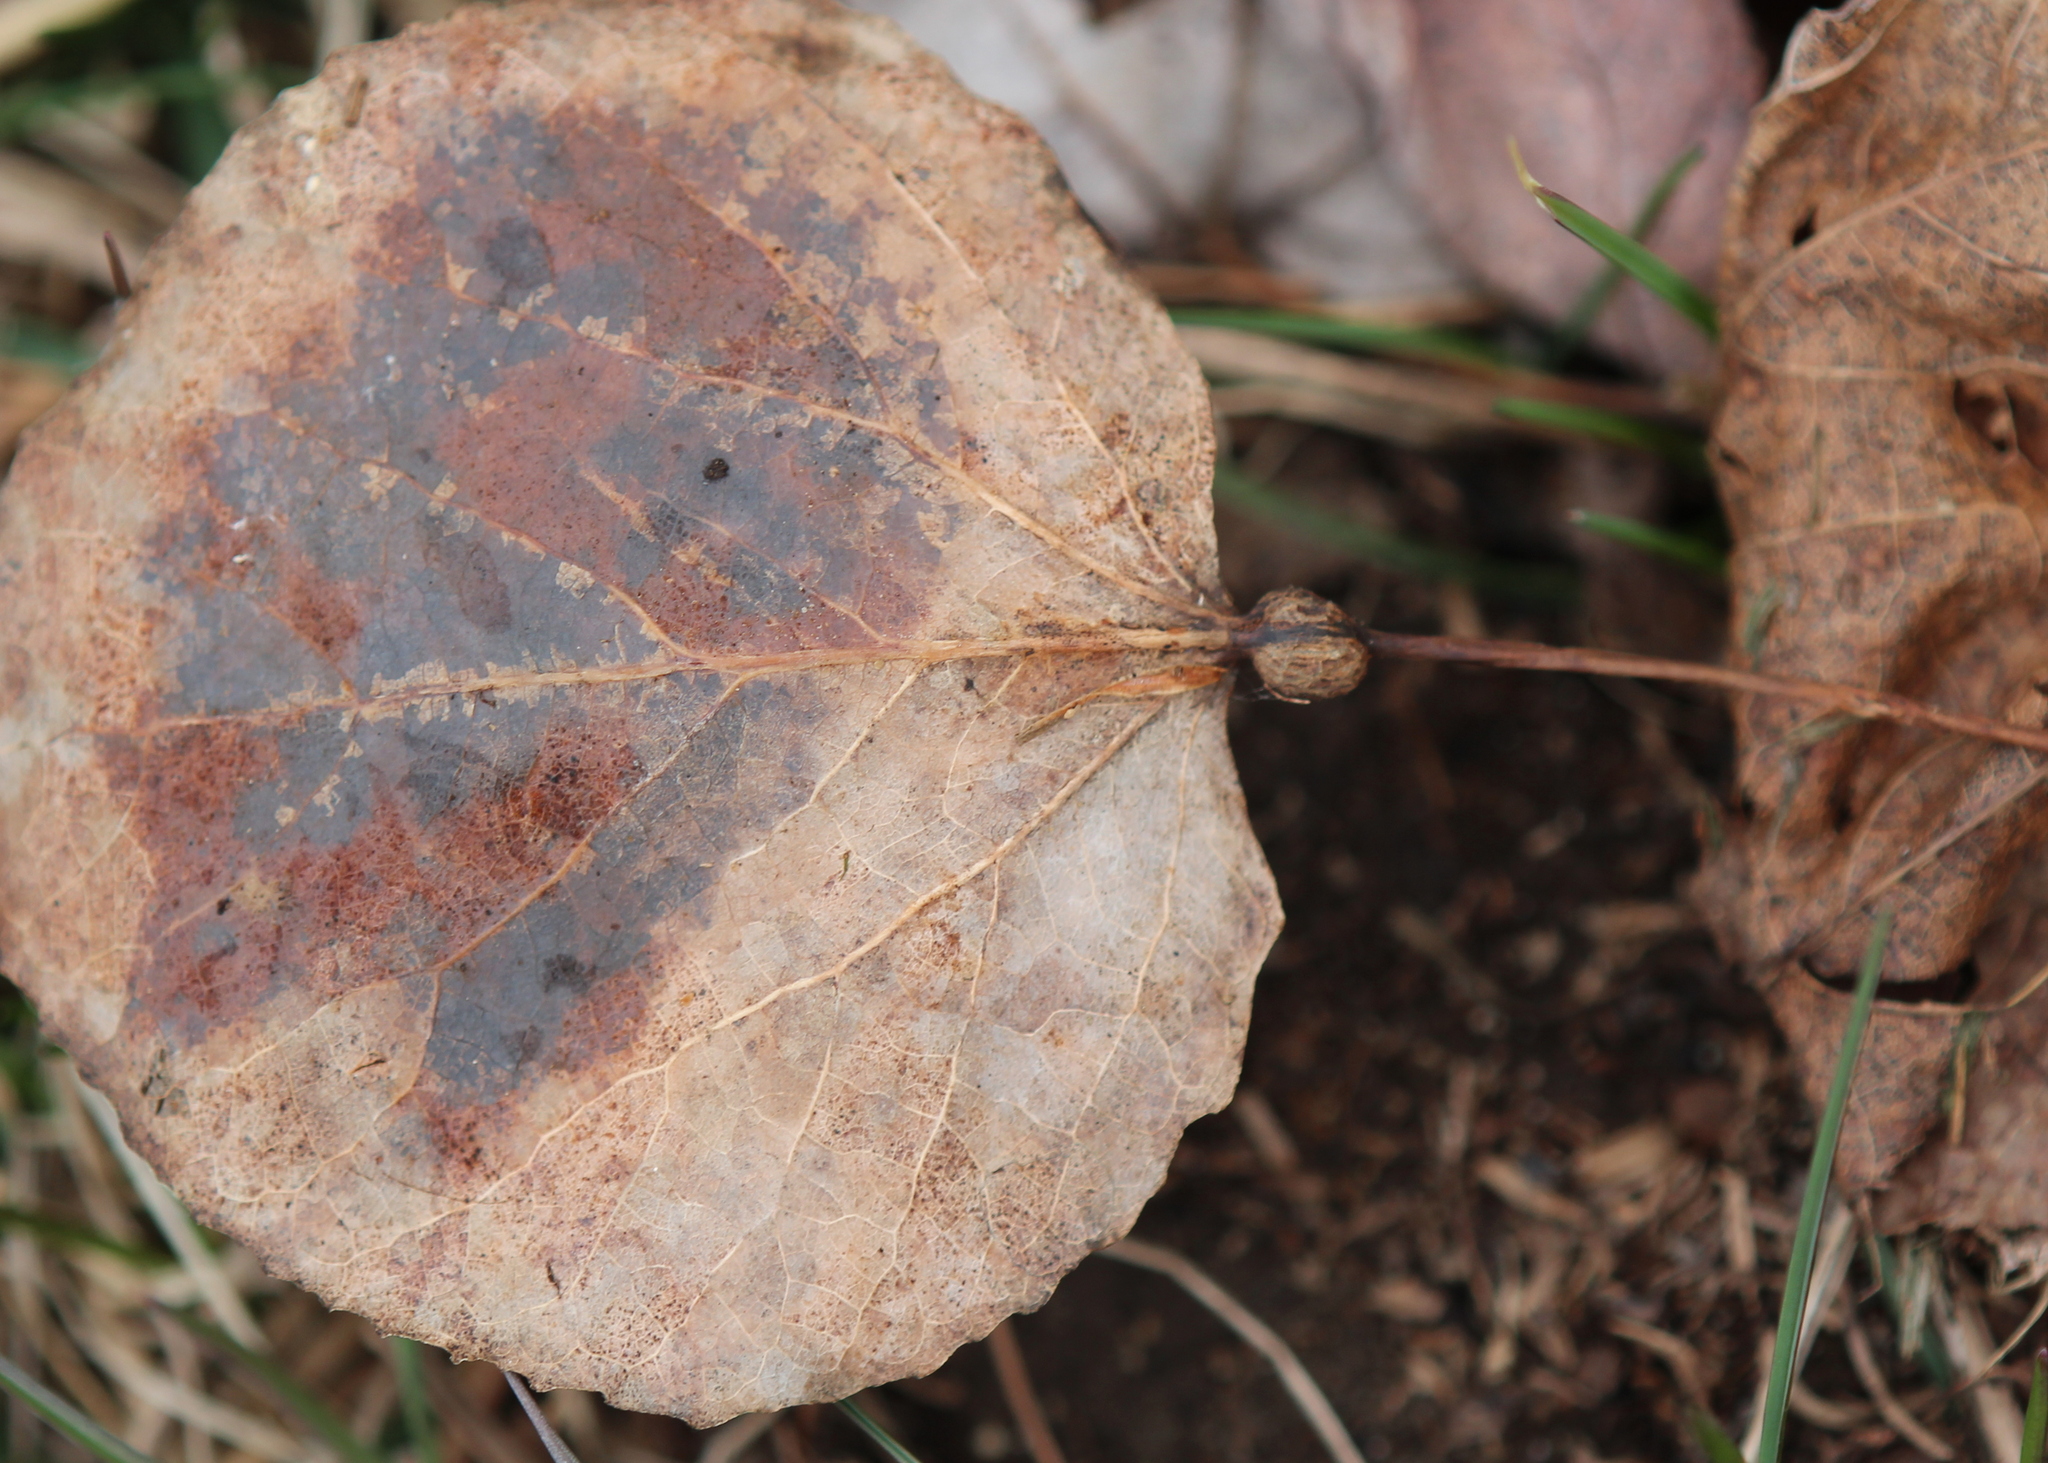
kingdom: Animalia
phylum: Arthropoda
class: Insecta
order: Lepidoptera
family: Nepticulidae
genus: Ectoedemia
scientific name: Ectoedemia populella
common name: Aspen petiole gall moth
